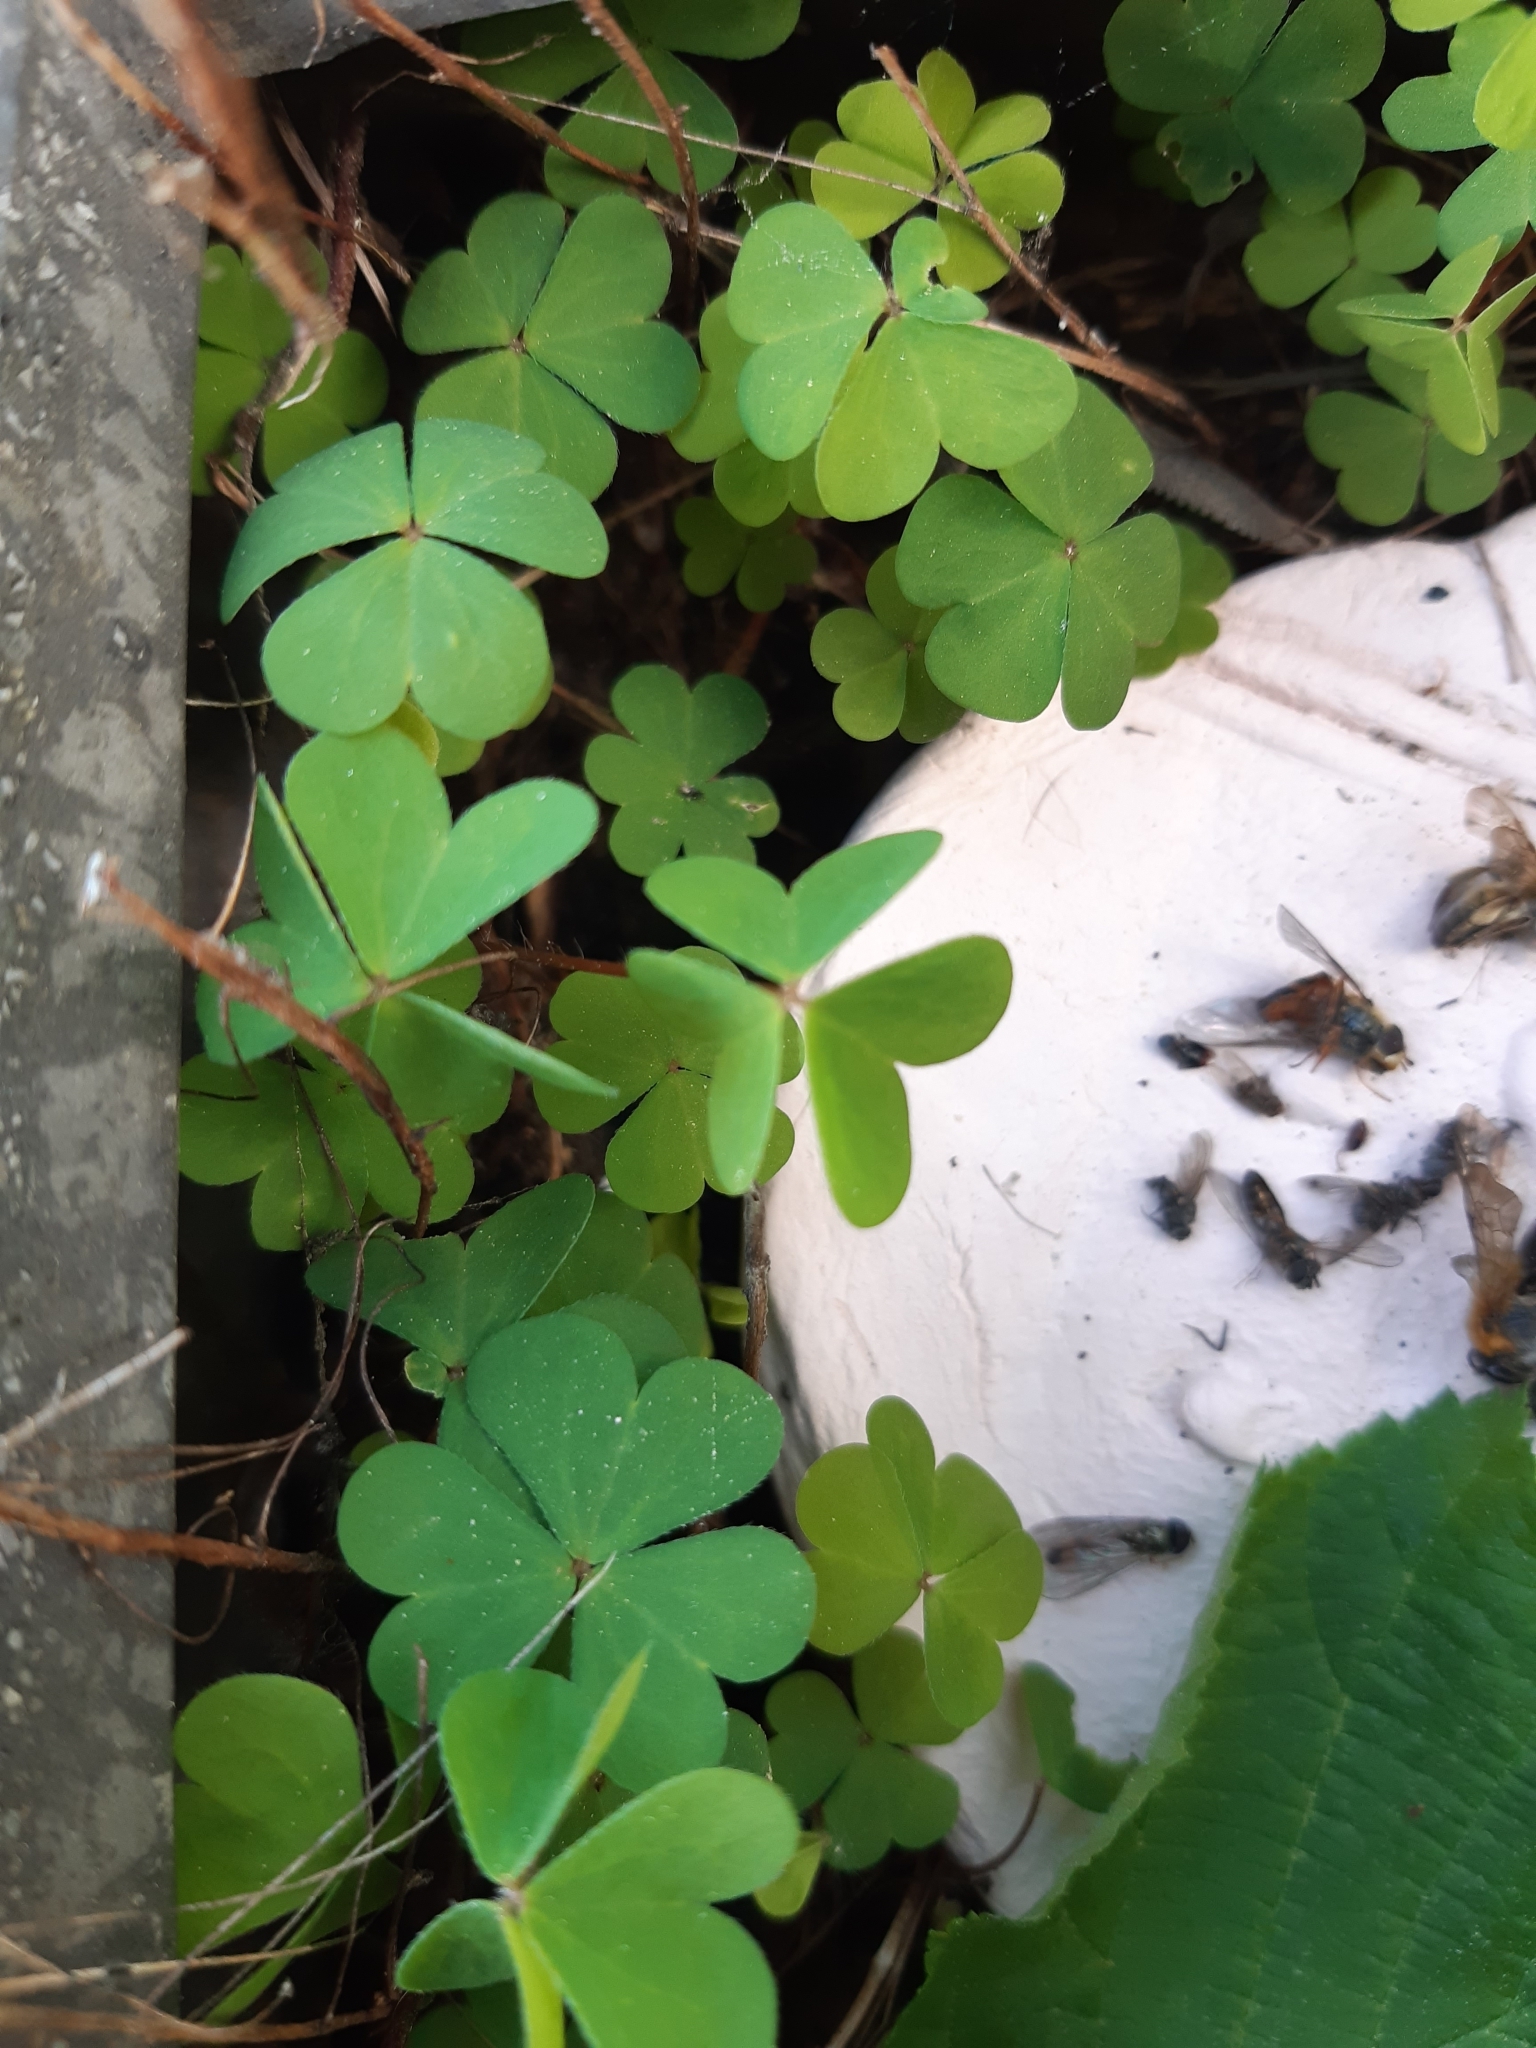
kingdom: Plantae
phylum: Tracheophyta
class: Magnoliopsida
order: Oxalidales
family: Oxalidaceae
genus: Oxalis
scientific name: Oxalis acetosella
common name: Wood-sorrel
